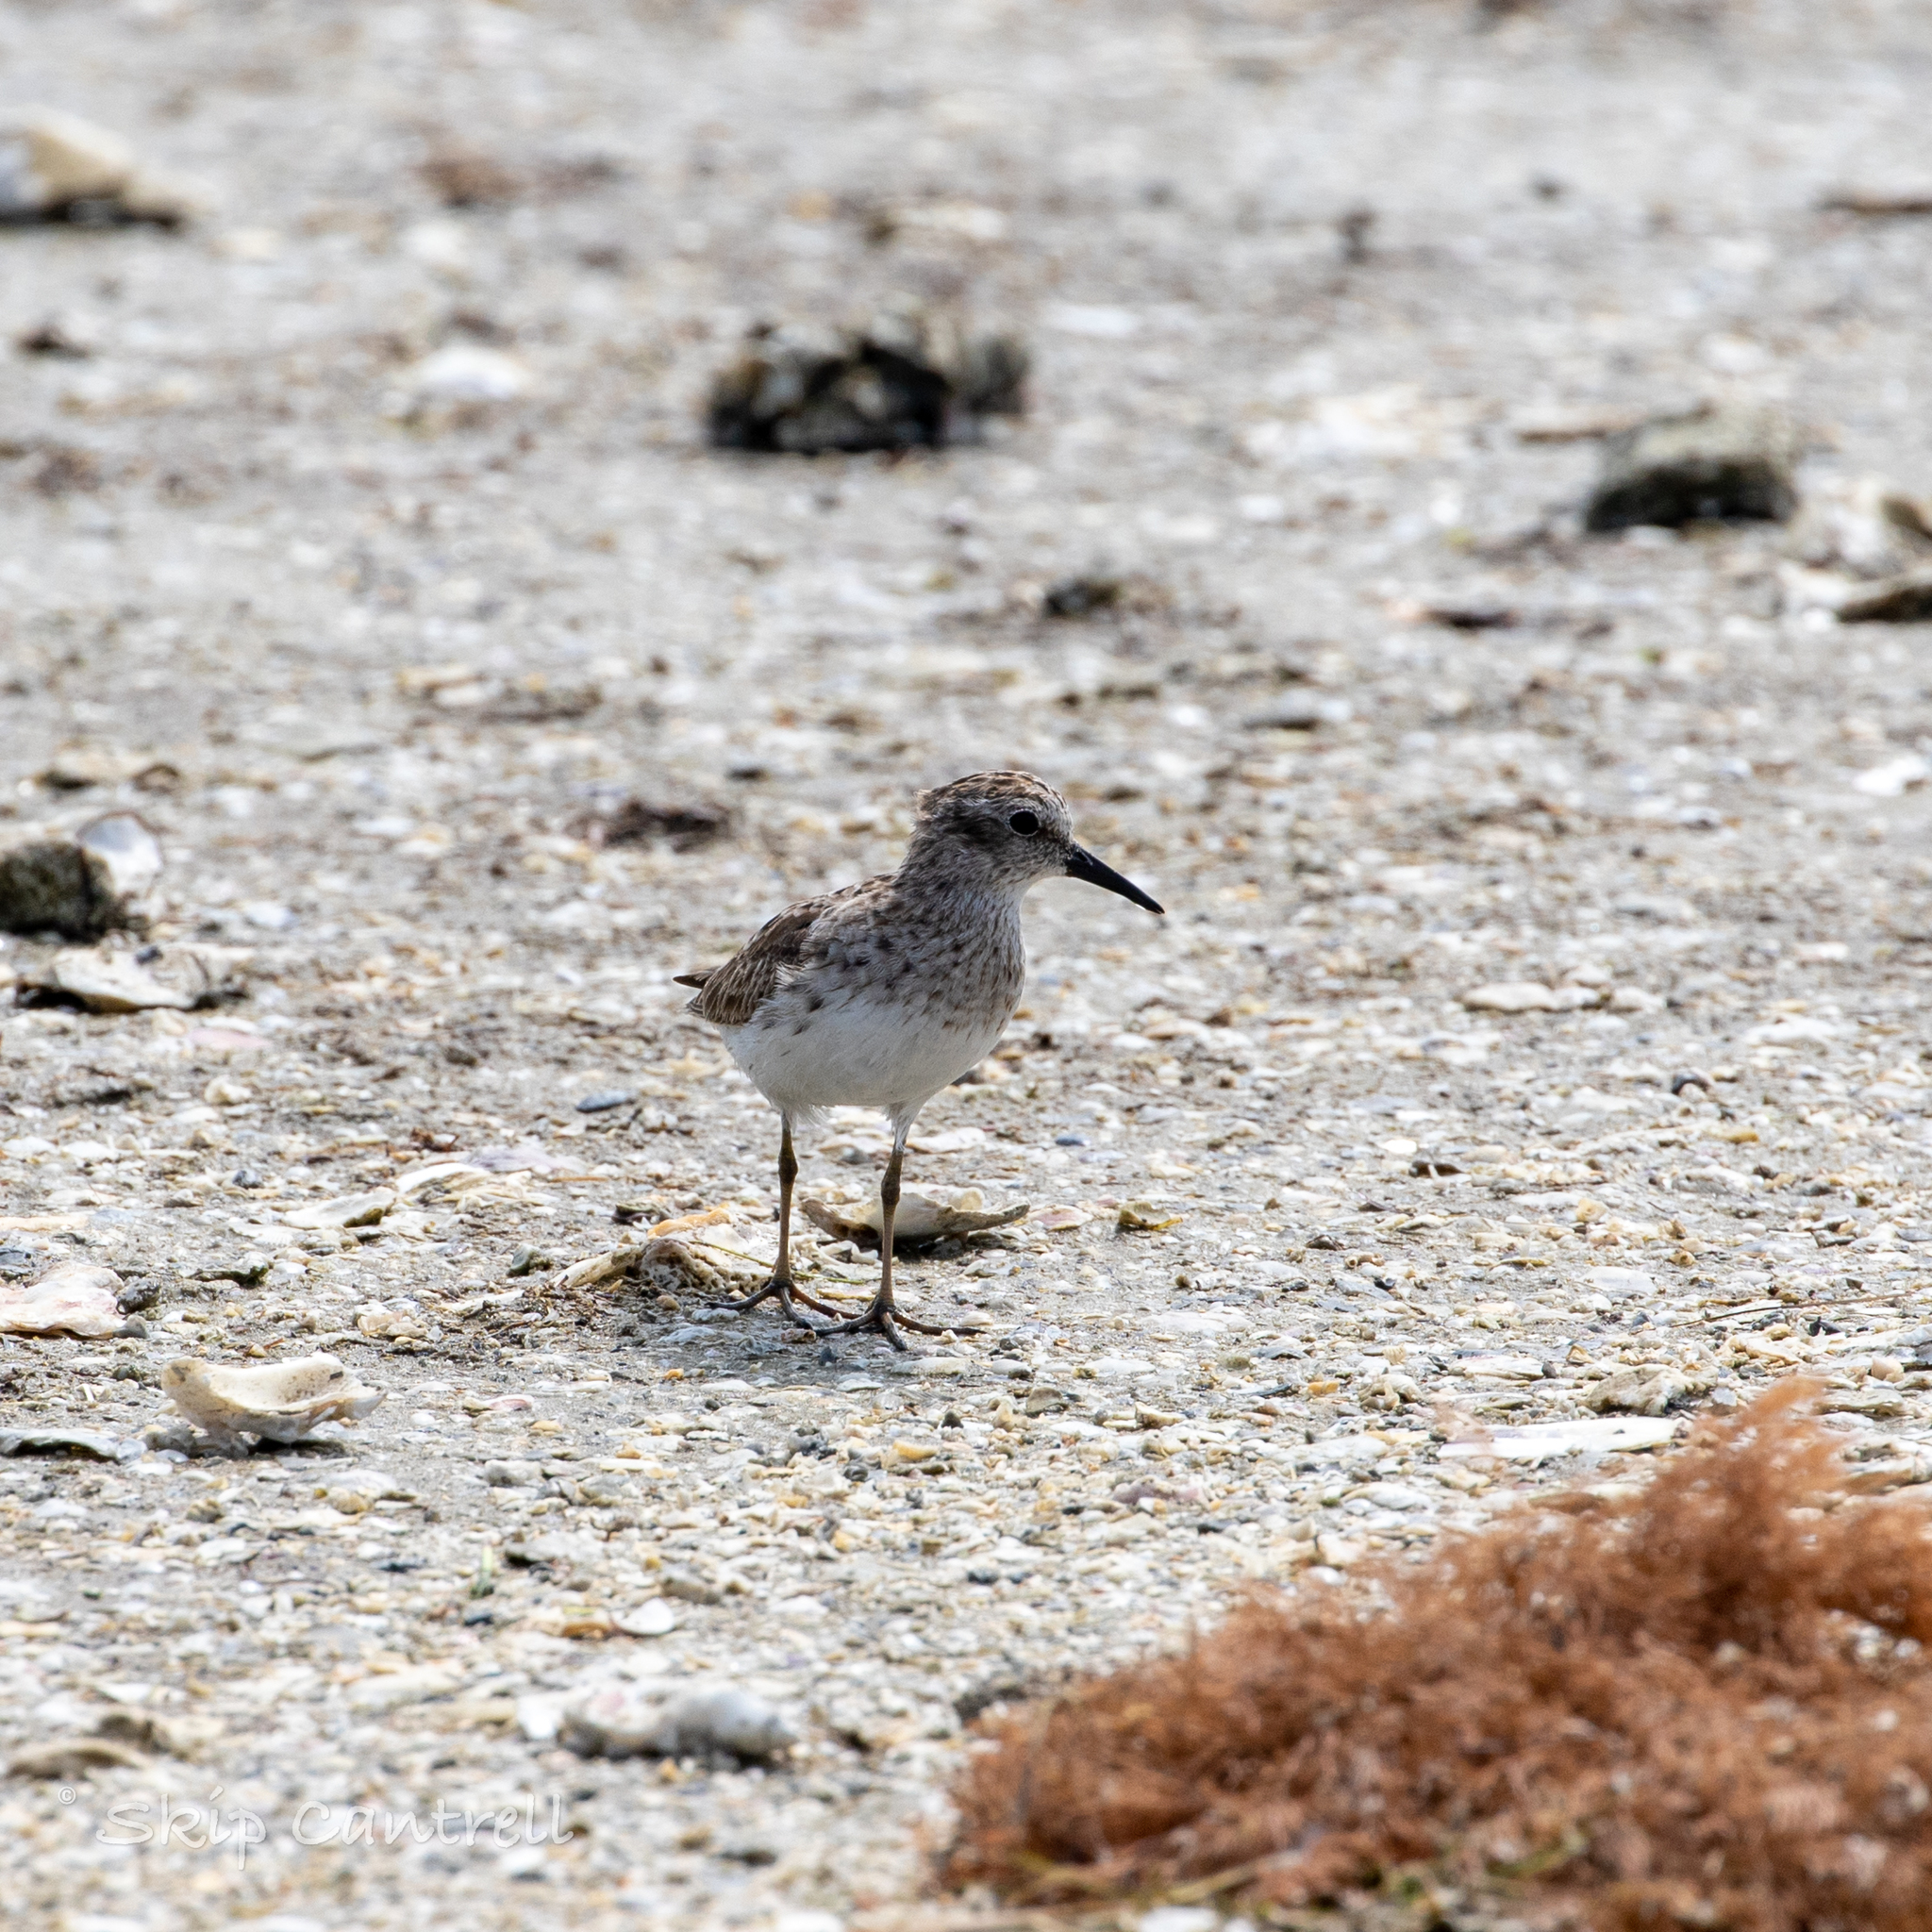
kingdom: Animalia
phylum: Chordata
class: Aves
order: Charadriiformes
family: Scolopacidae
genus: Calidris
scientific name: Calidris minutilla
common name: Least sandpiper
